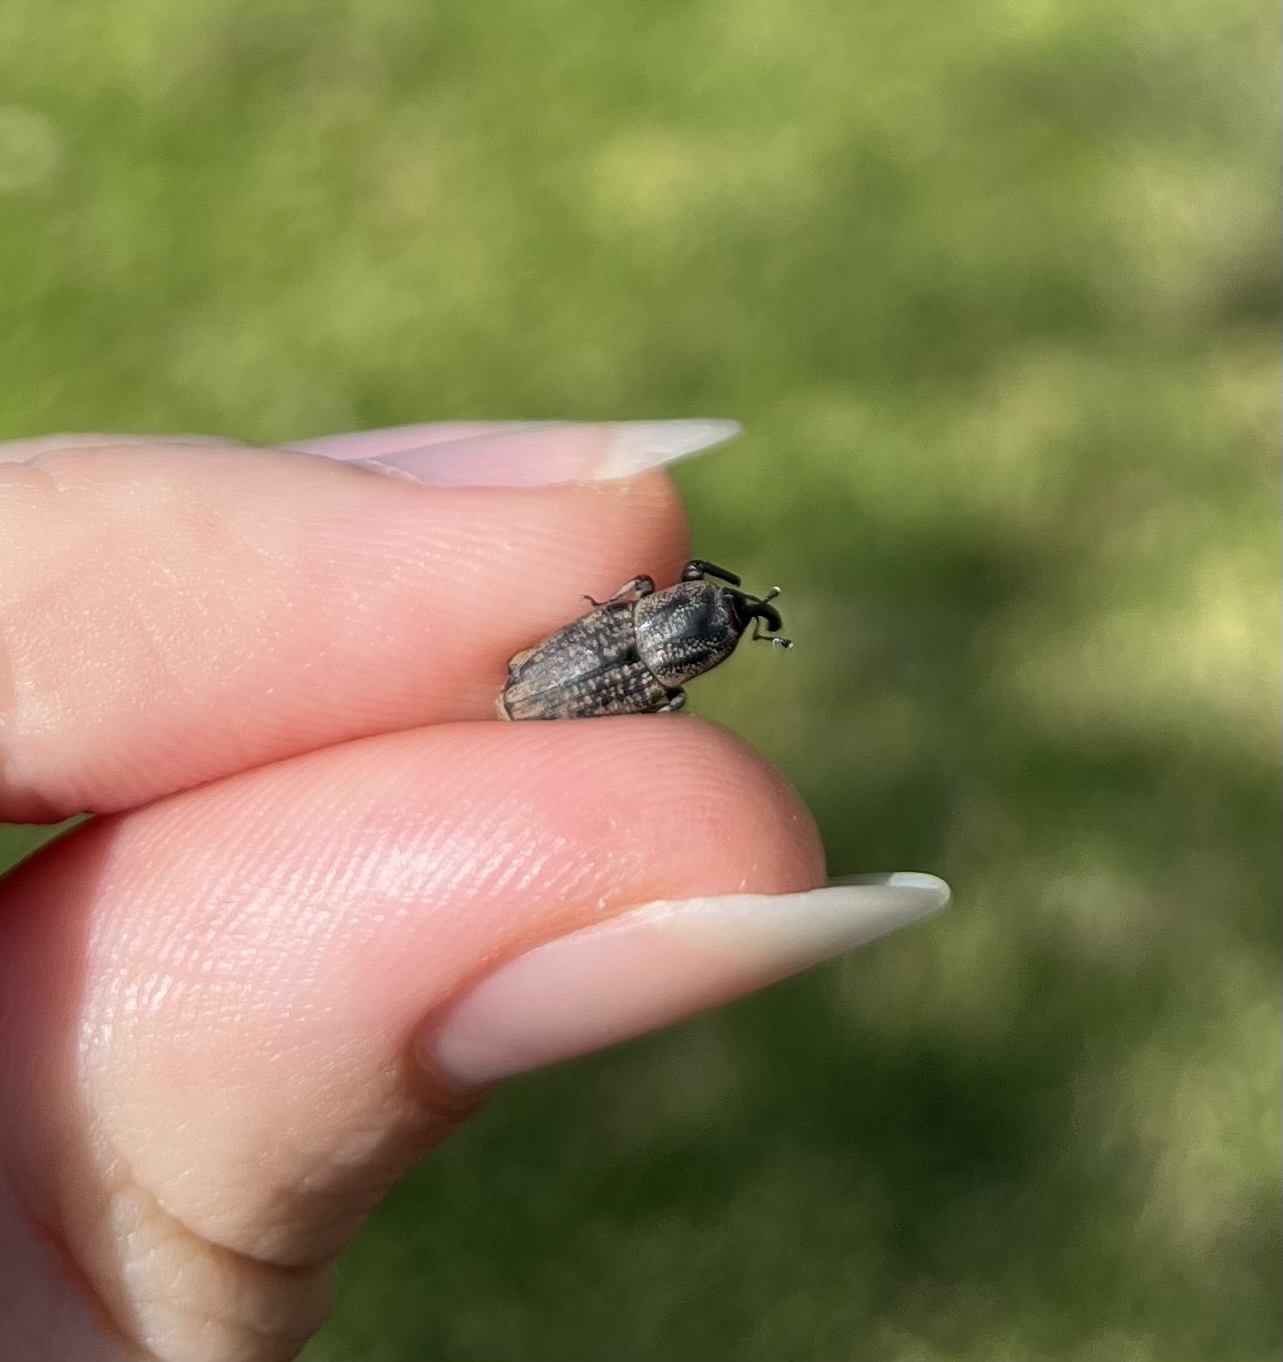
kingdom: Animalia
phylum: Arthropoda
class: Insecta
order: Coleoptera
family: Dryophthoridae
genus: Sphenophorus
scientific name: Sphenophorus venatus
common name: Hunting billbug
